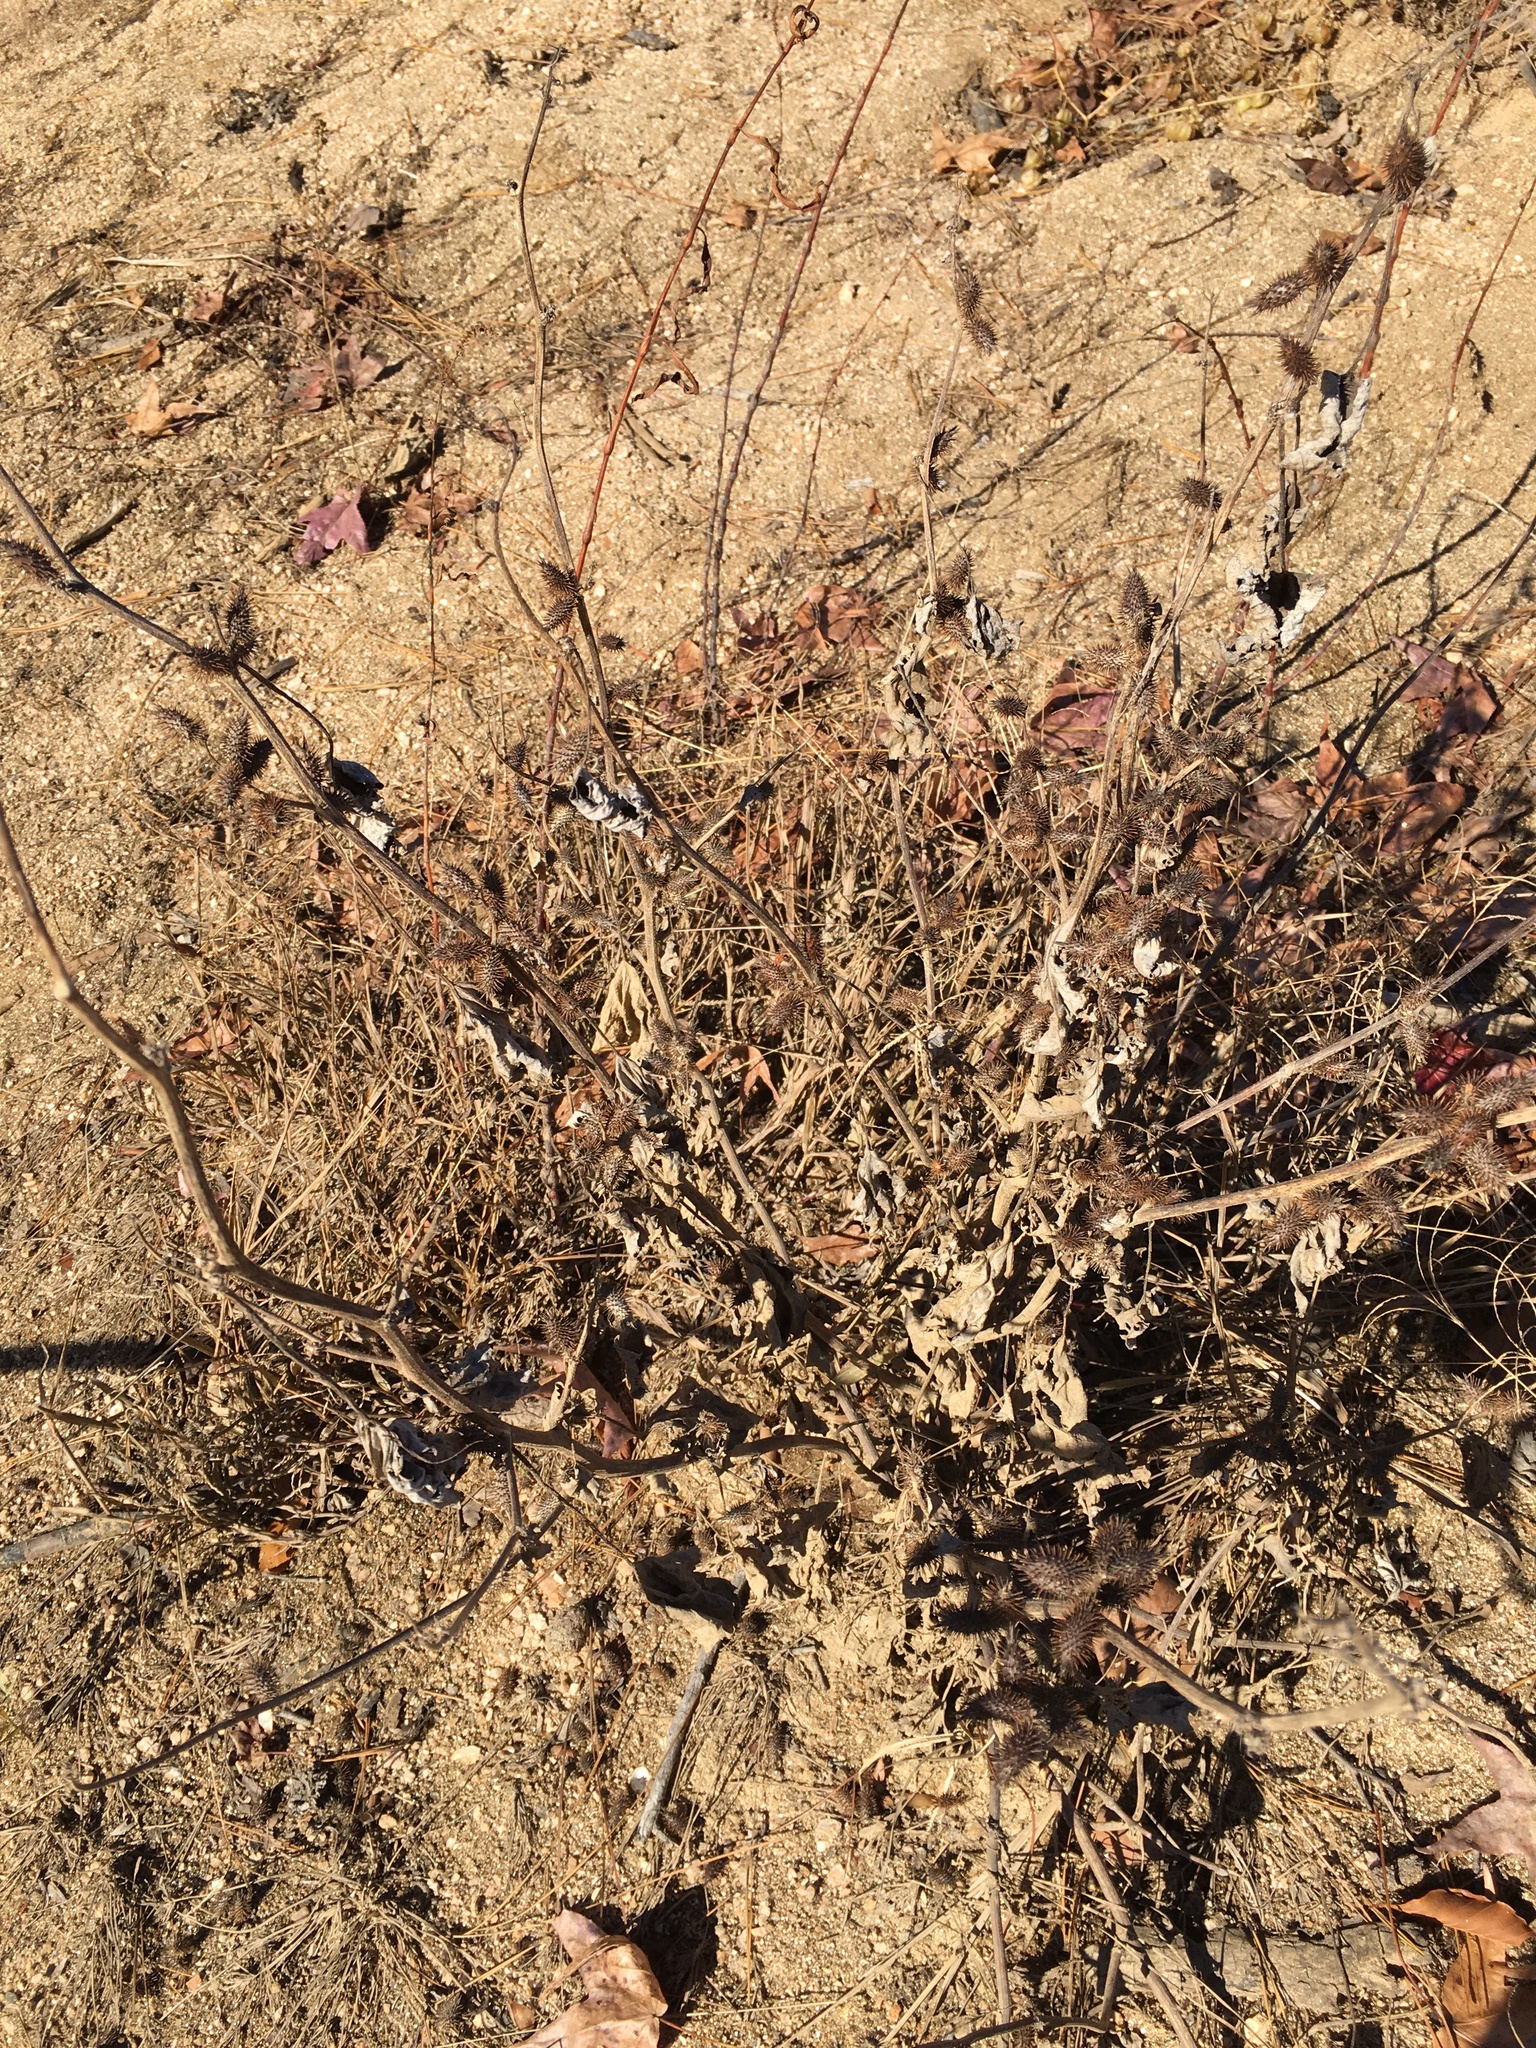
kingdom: Plantae
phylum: Tracheophyta
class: Magnoliopsida
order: Asterales
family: Asteraceae
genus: Xanthium
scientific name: Xanthium strumarium
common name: Rough cocklebur
